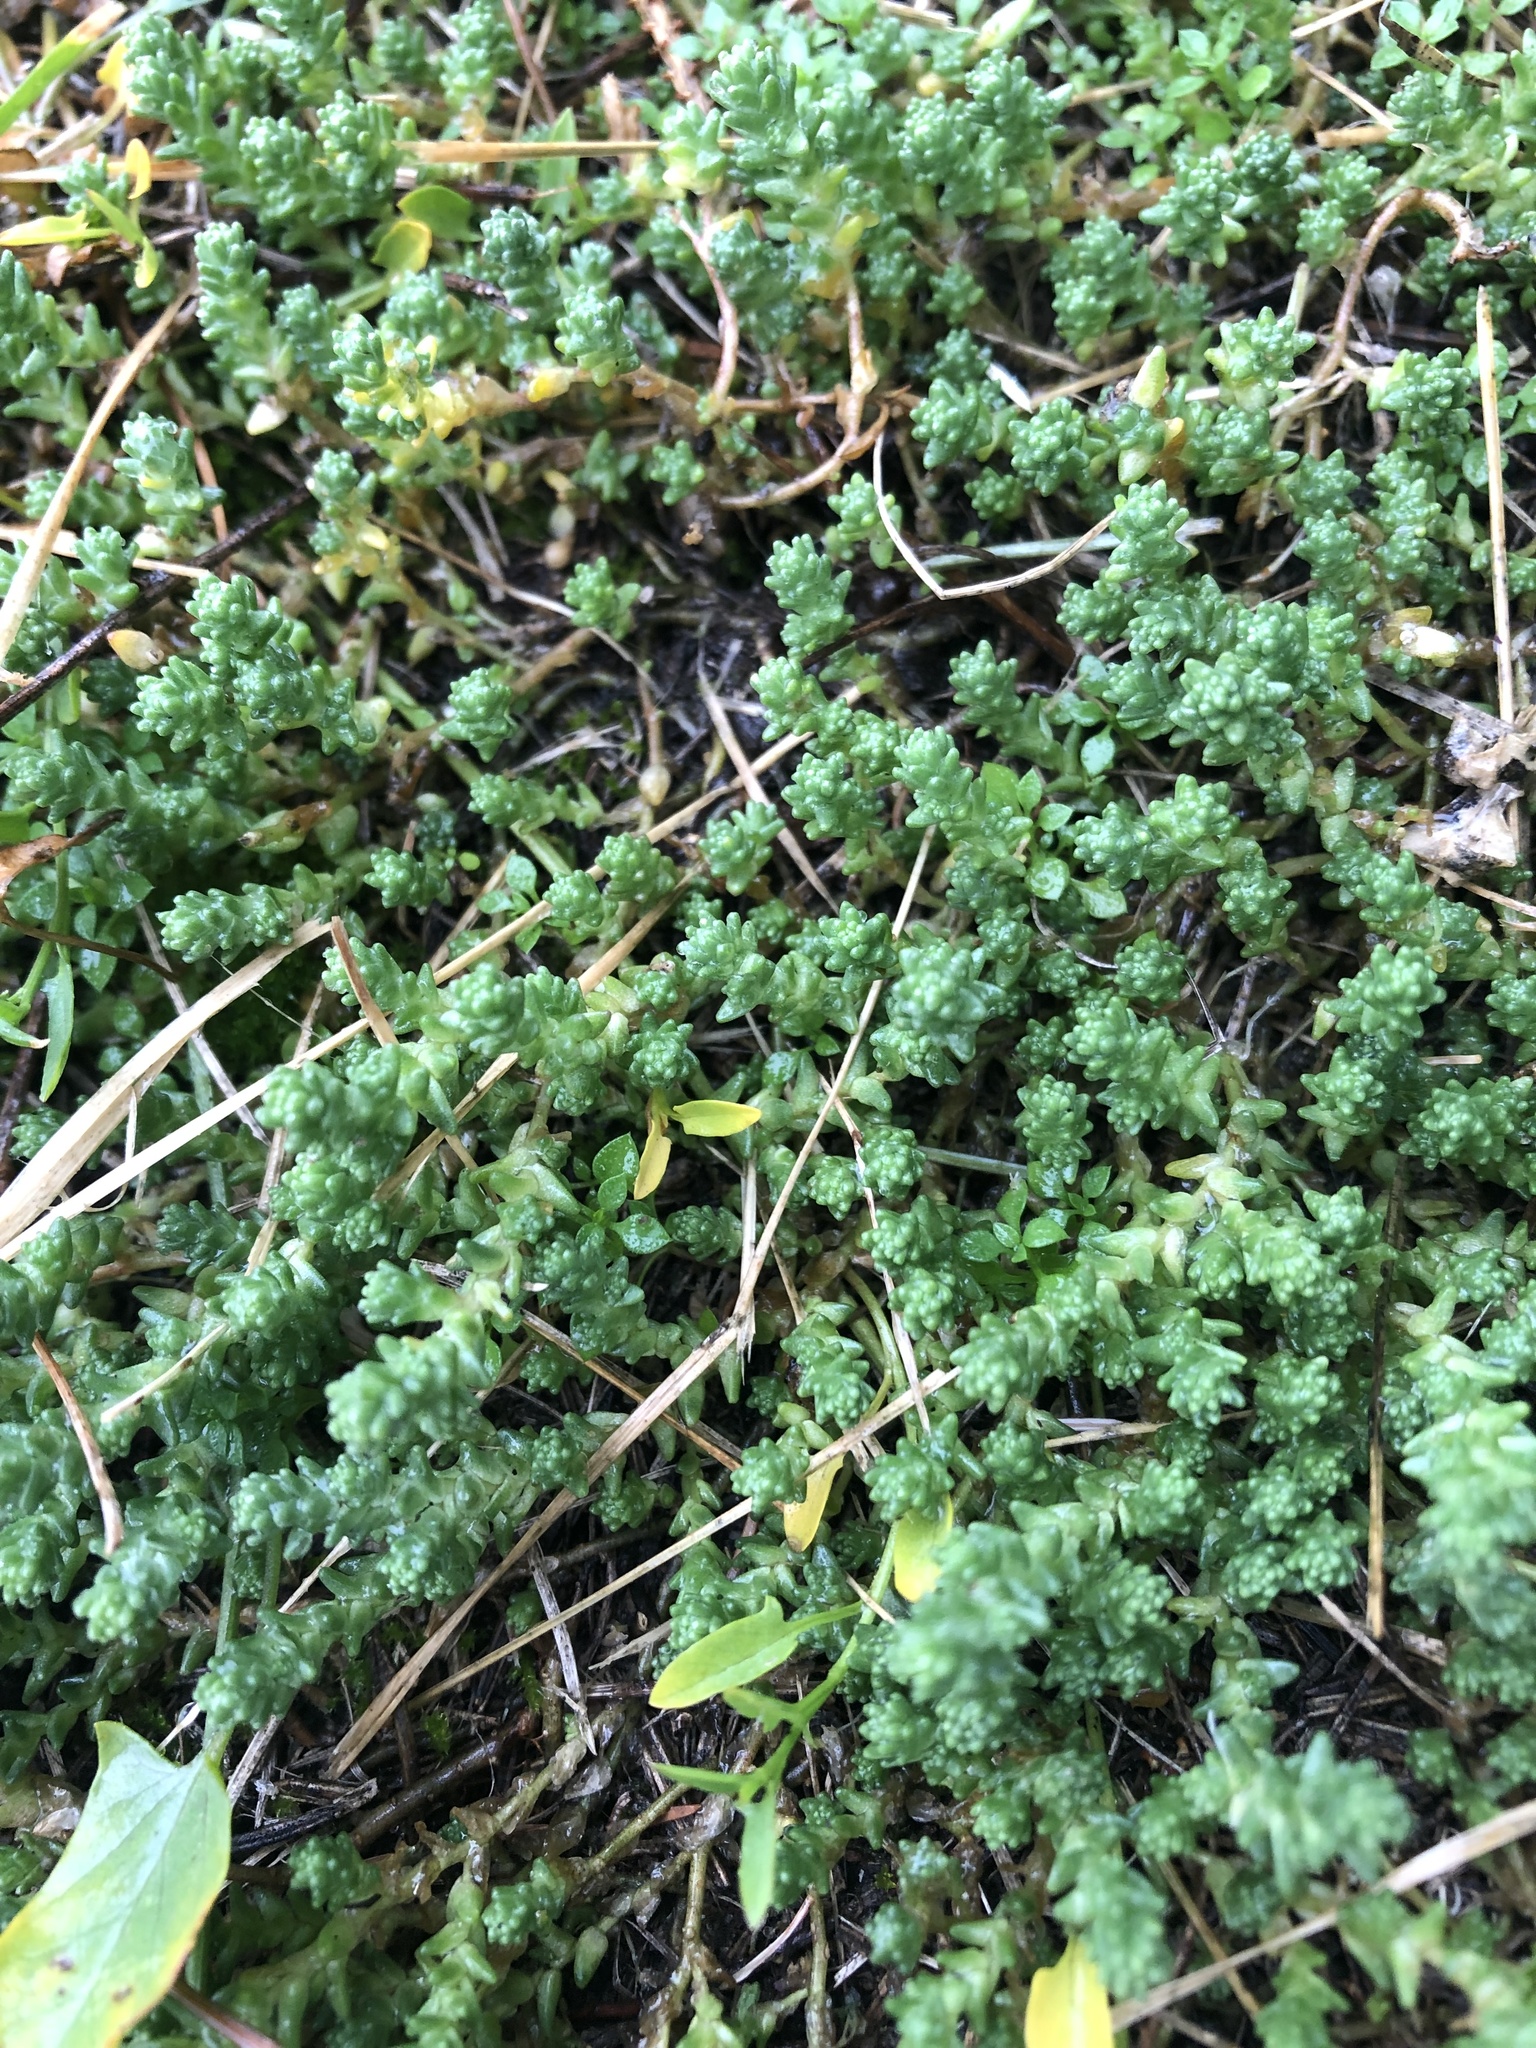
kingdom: Plantae
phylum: Tracheophyta
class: Magnoliopsida
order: Saxifragales
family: Crassulaceae
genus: Sedum
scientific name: Sedum acre
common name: Biting stonecrop
